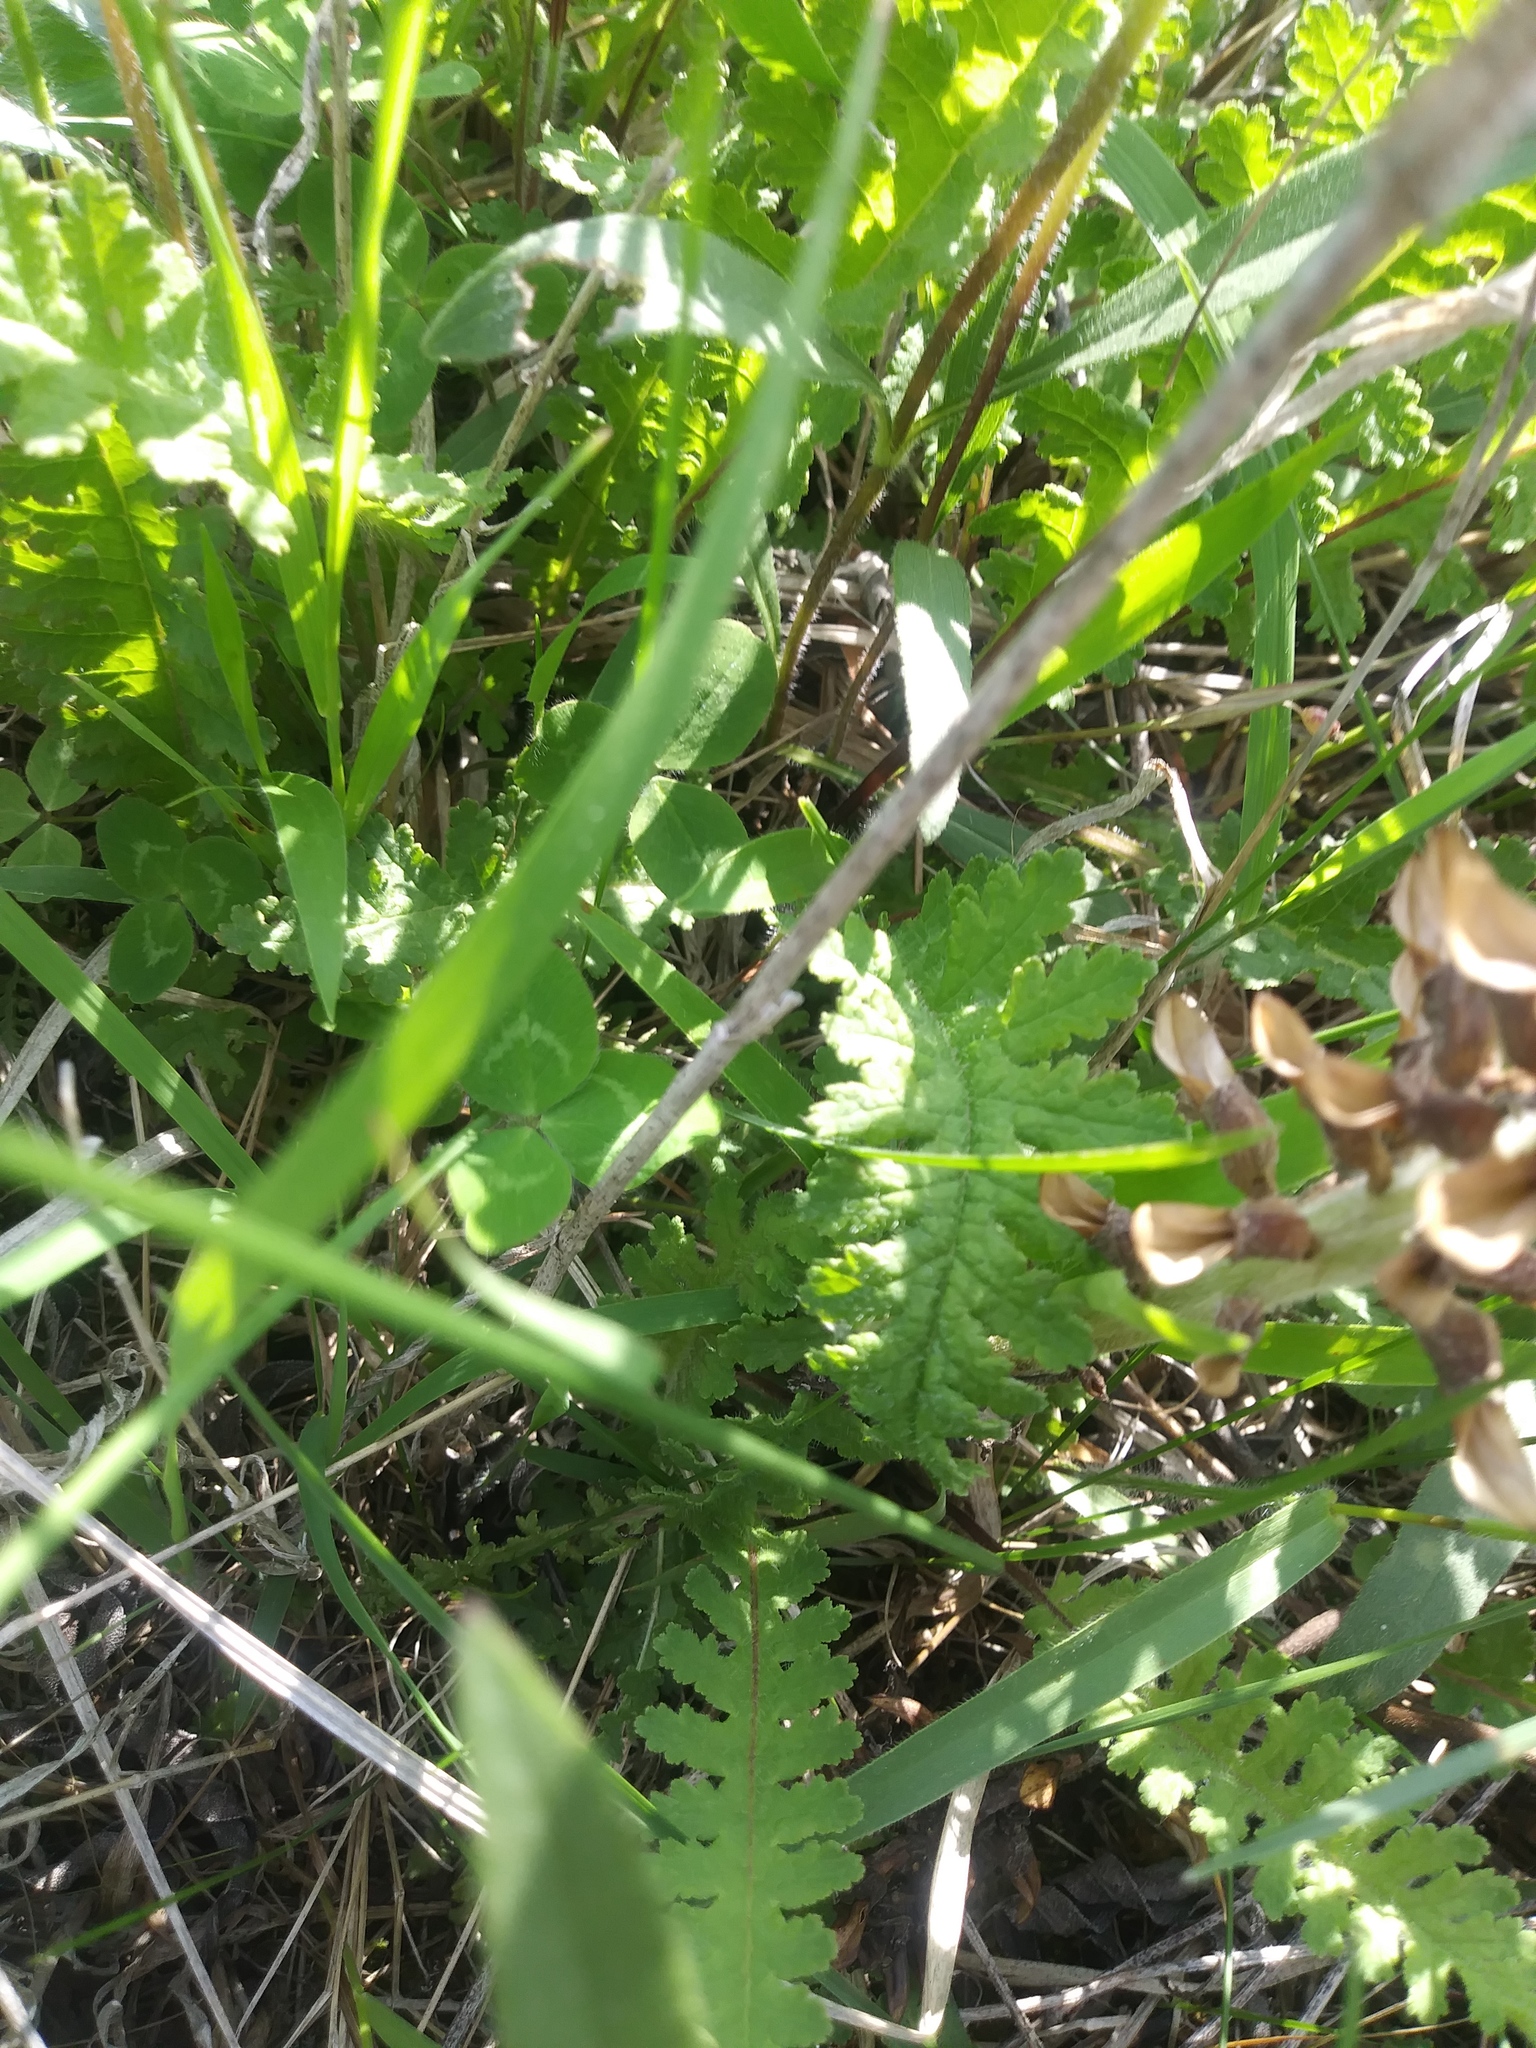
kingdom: Plantae
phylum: Tracheophyta
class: Magnoliopsida
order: Lamiales
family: Orobanchaceae
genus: Pedicularis
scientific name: Pedicularis canadensis
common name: Early lousewort
